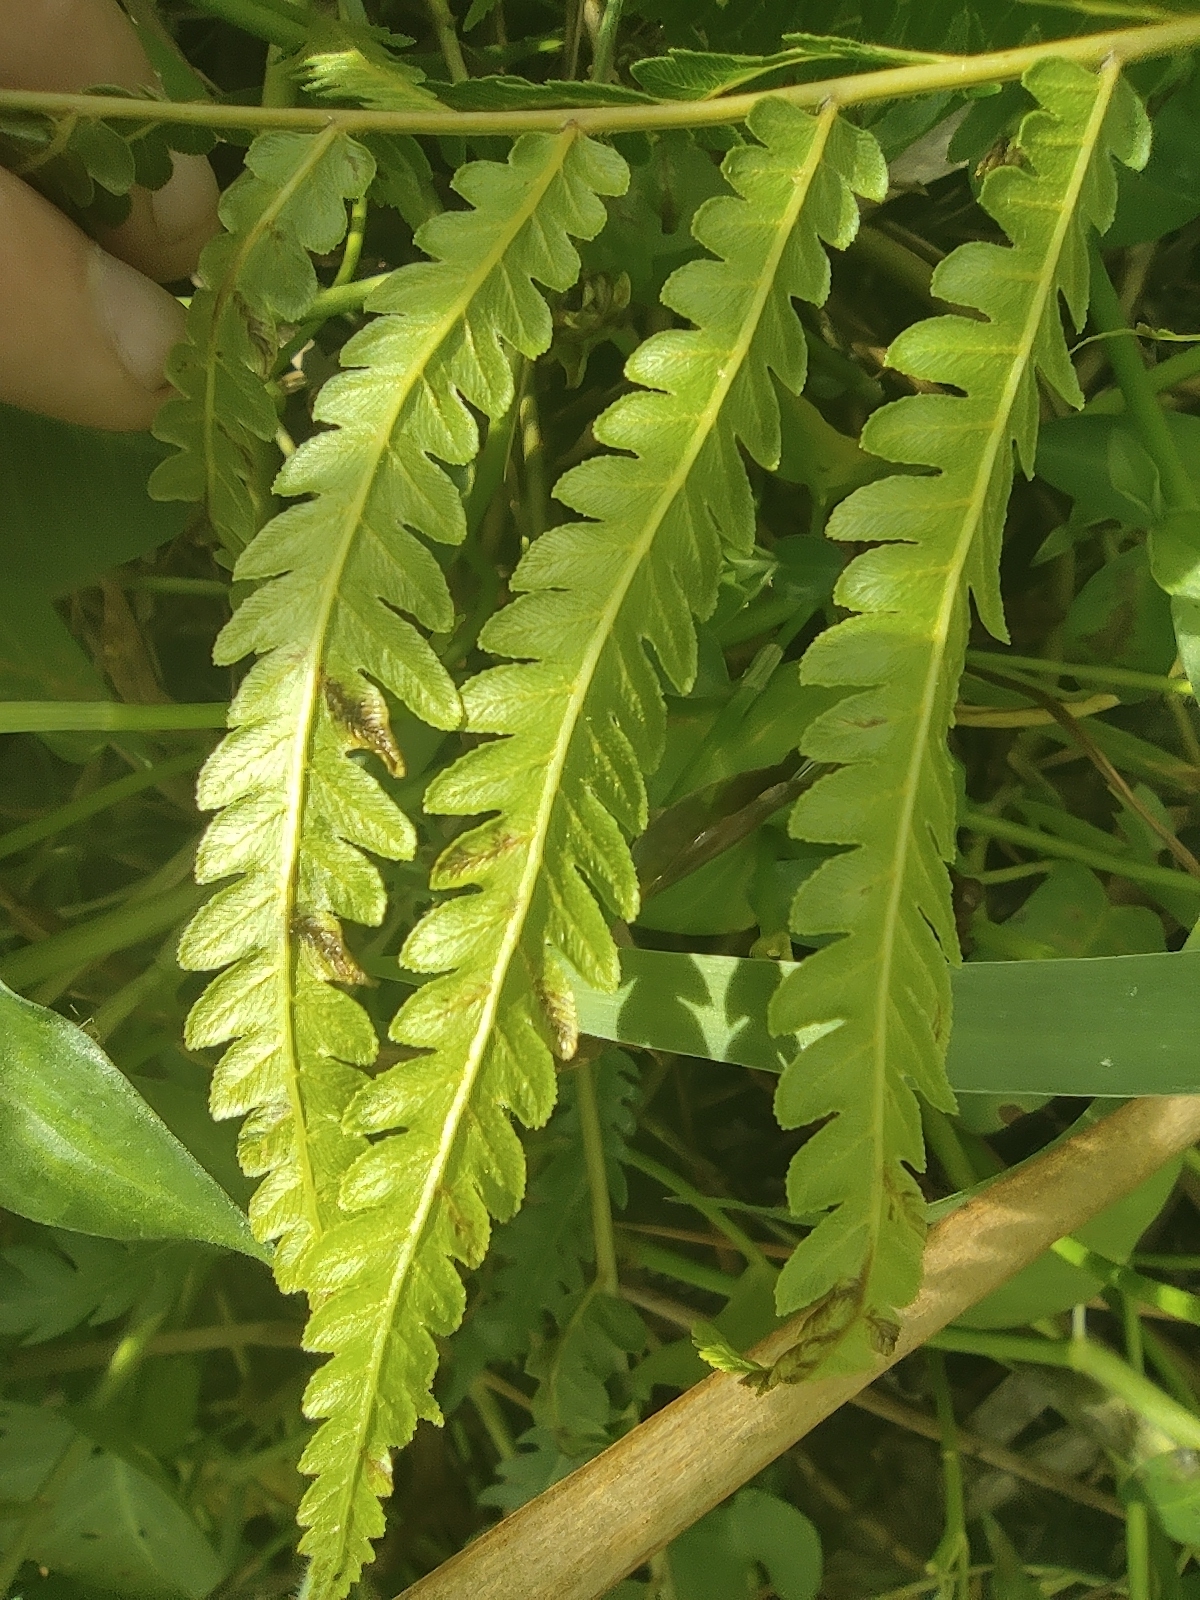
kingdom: Plantae
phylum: Tracheophyta
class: Polypodiopsida
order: Polypodiales
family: Thelypteridaceae
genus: Cyclosorus
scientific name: Cyclosorus interruptus
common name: Neke fern
